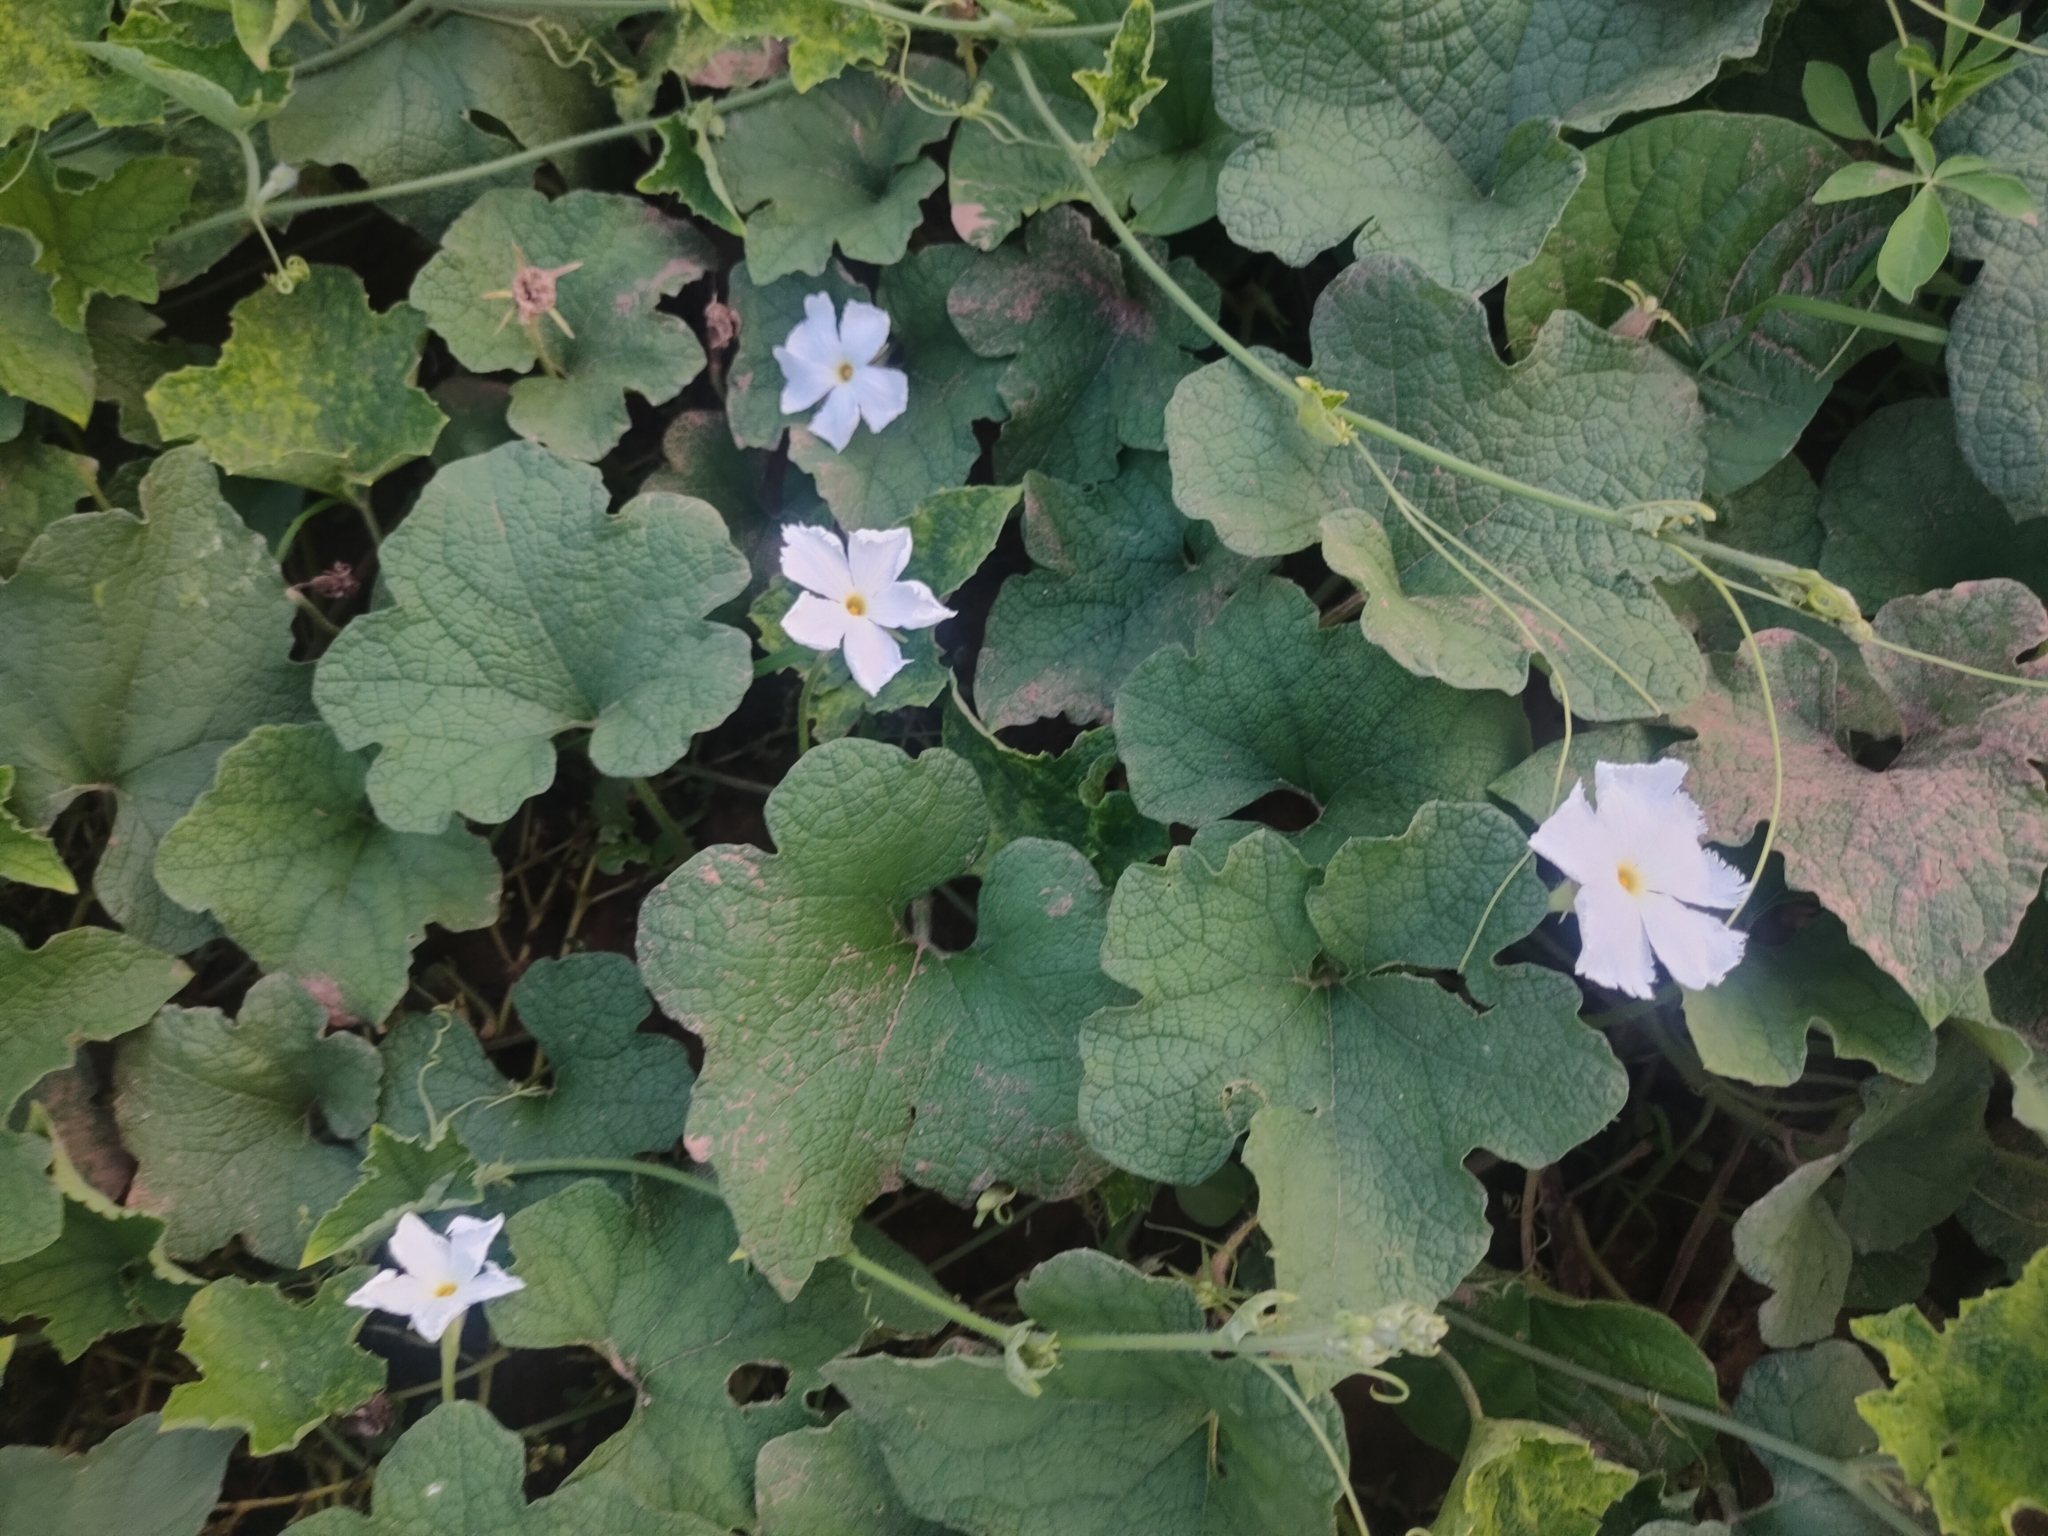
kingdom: Plantae
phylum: Tracheophyta
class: Magnoliopsida
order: Cucurbitales
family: Cucurbitaceae
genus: Trichosanthes
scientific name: Trichosanthes scabra
